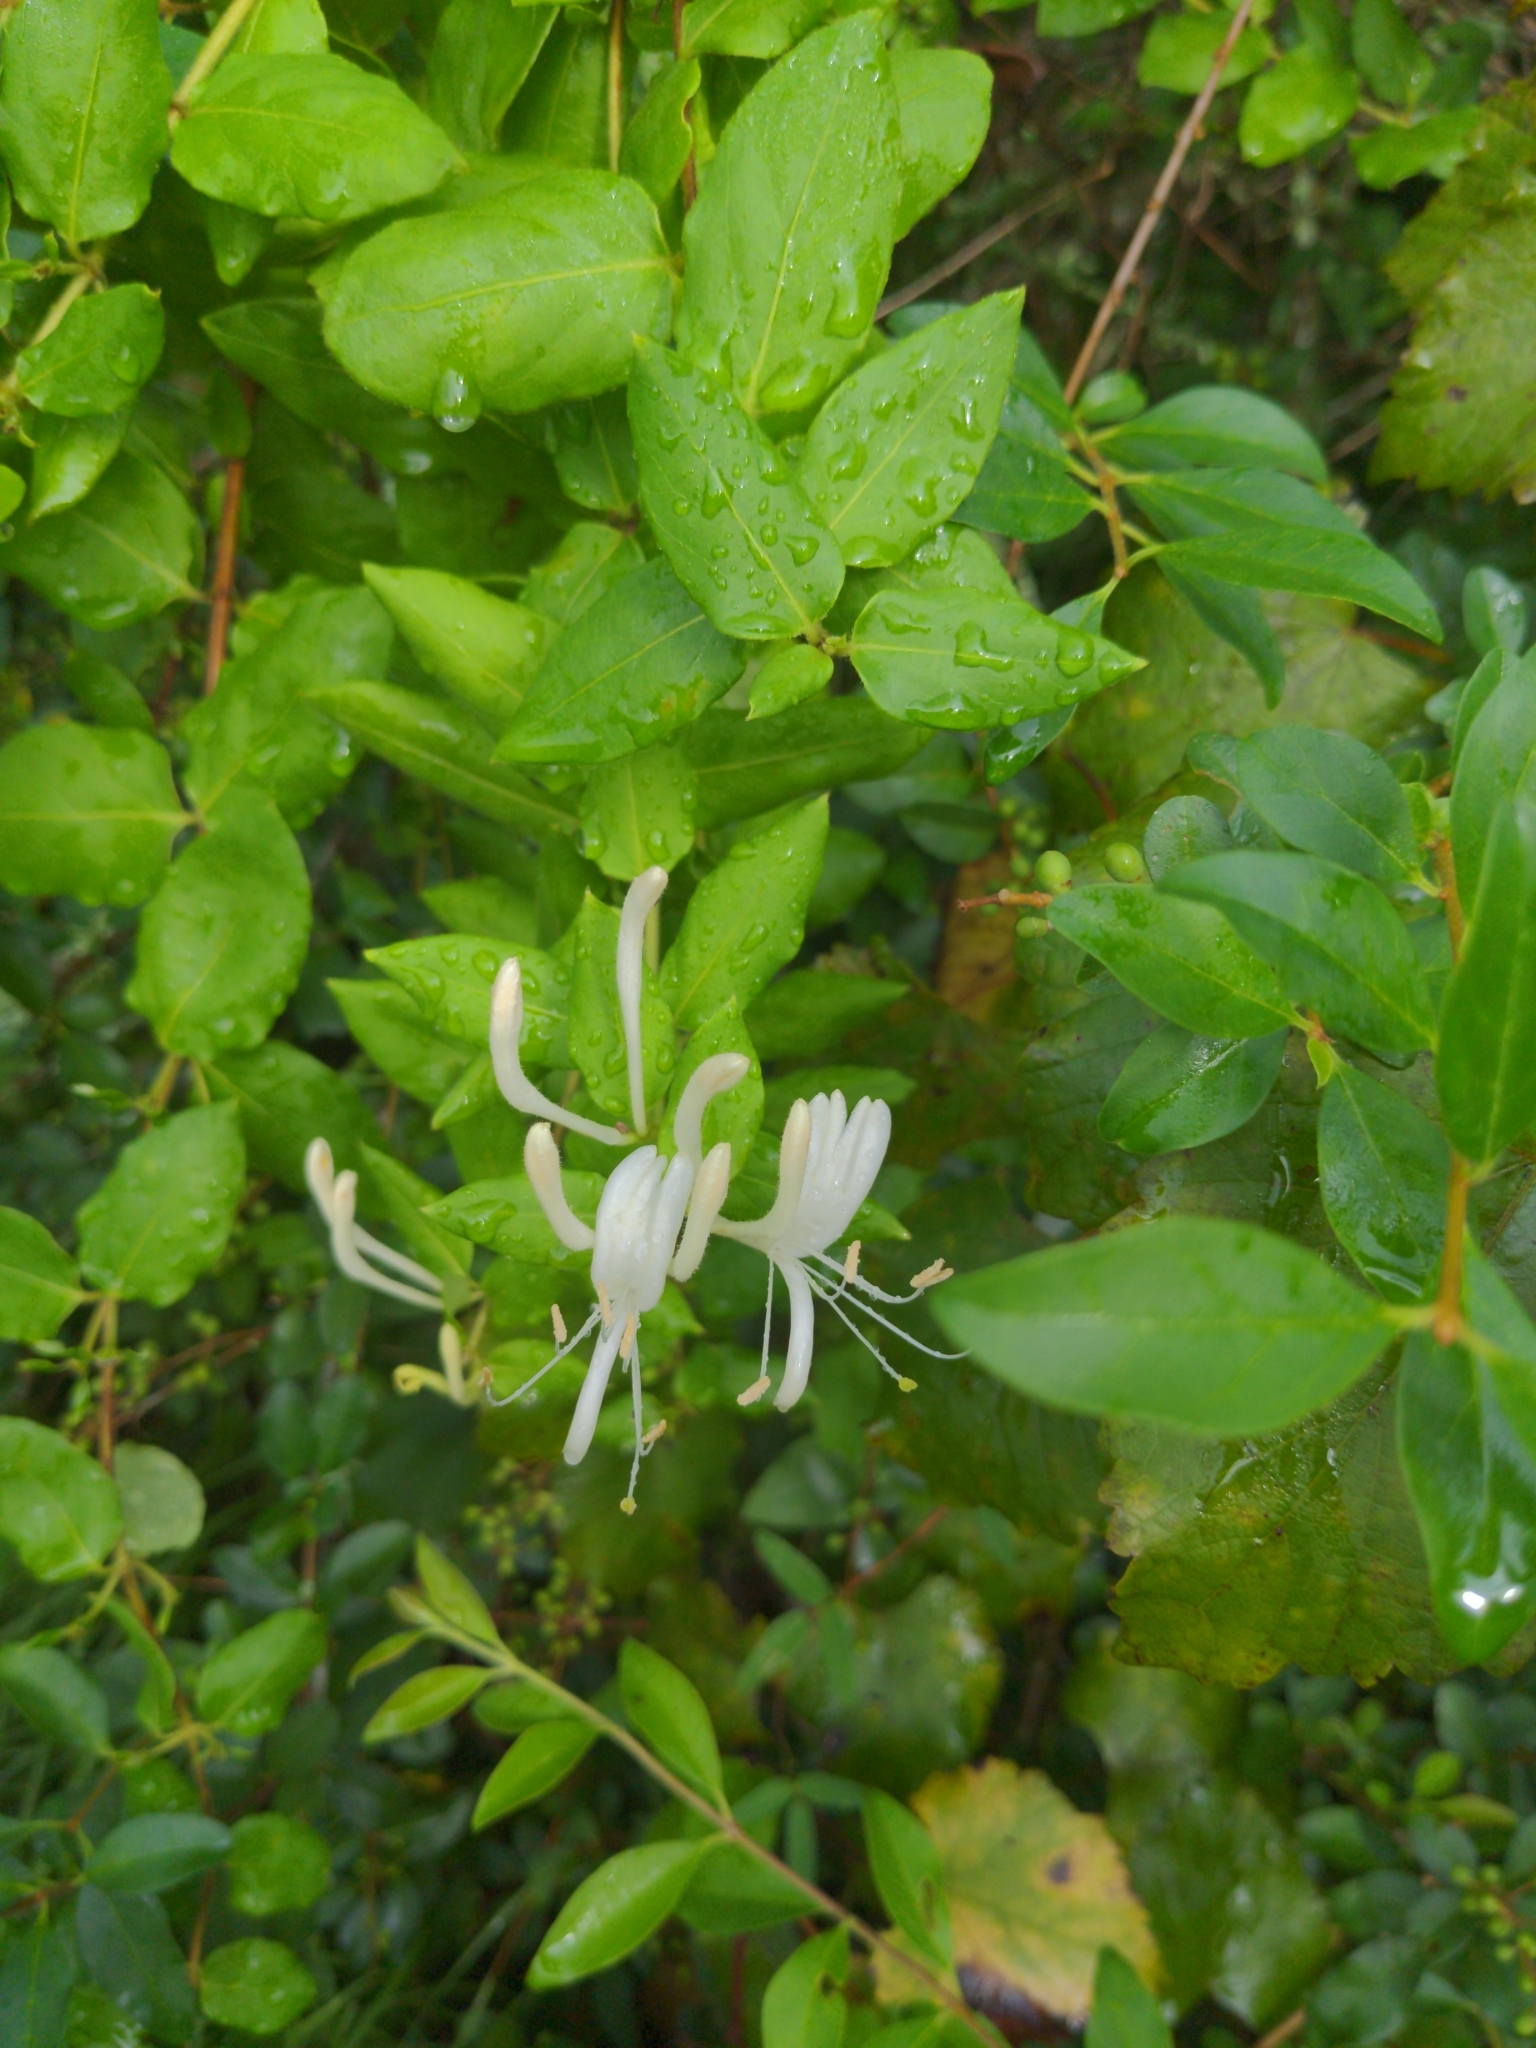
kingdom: Plantae
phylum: Tracheophyta
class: Magnoliopsida
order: Dipsacales
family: Caprifoliaceae
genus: Lonicera
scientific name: Lonicera japonica
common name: Japanese honeysuckle
